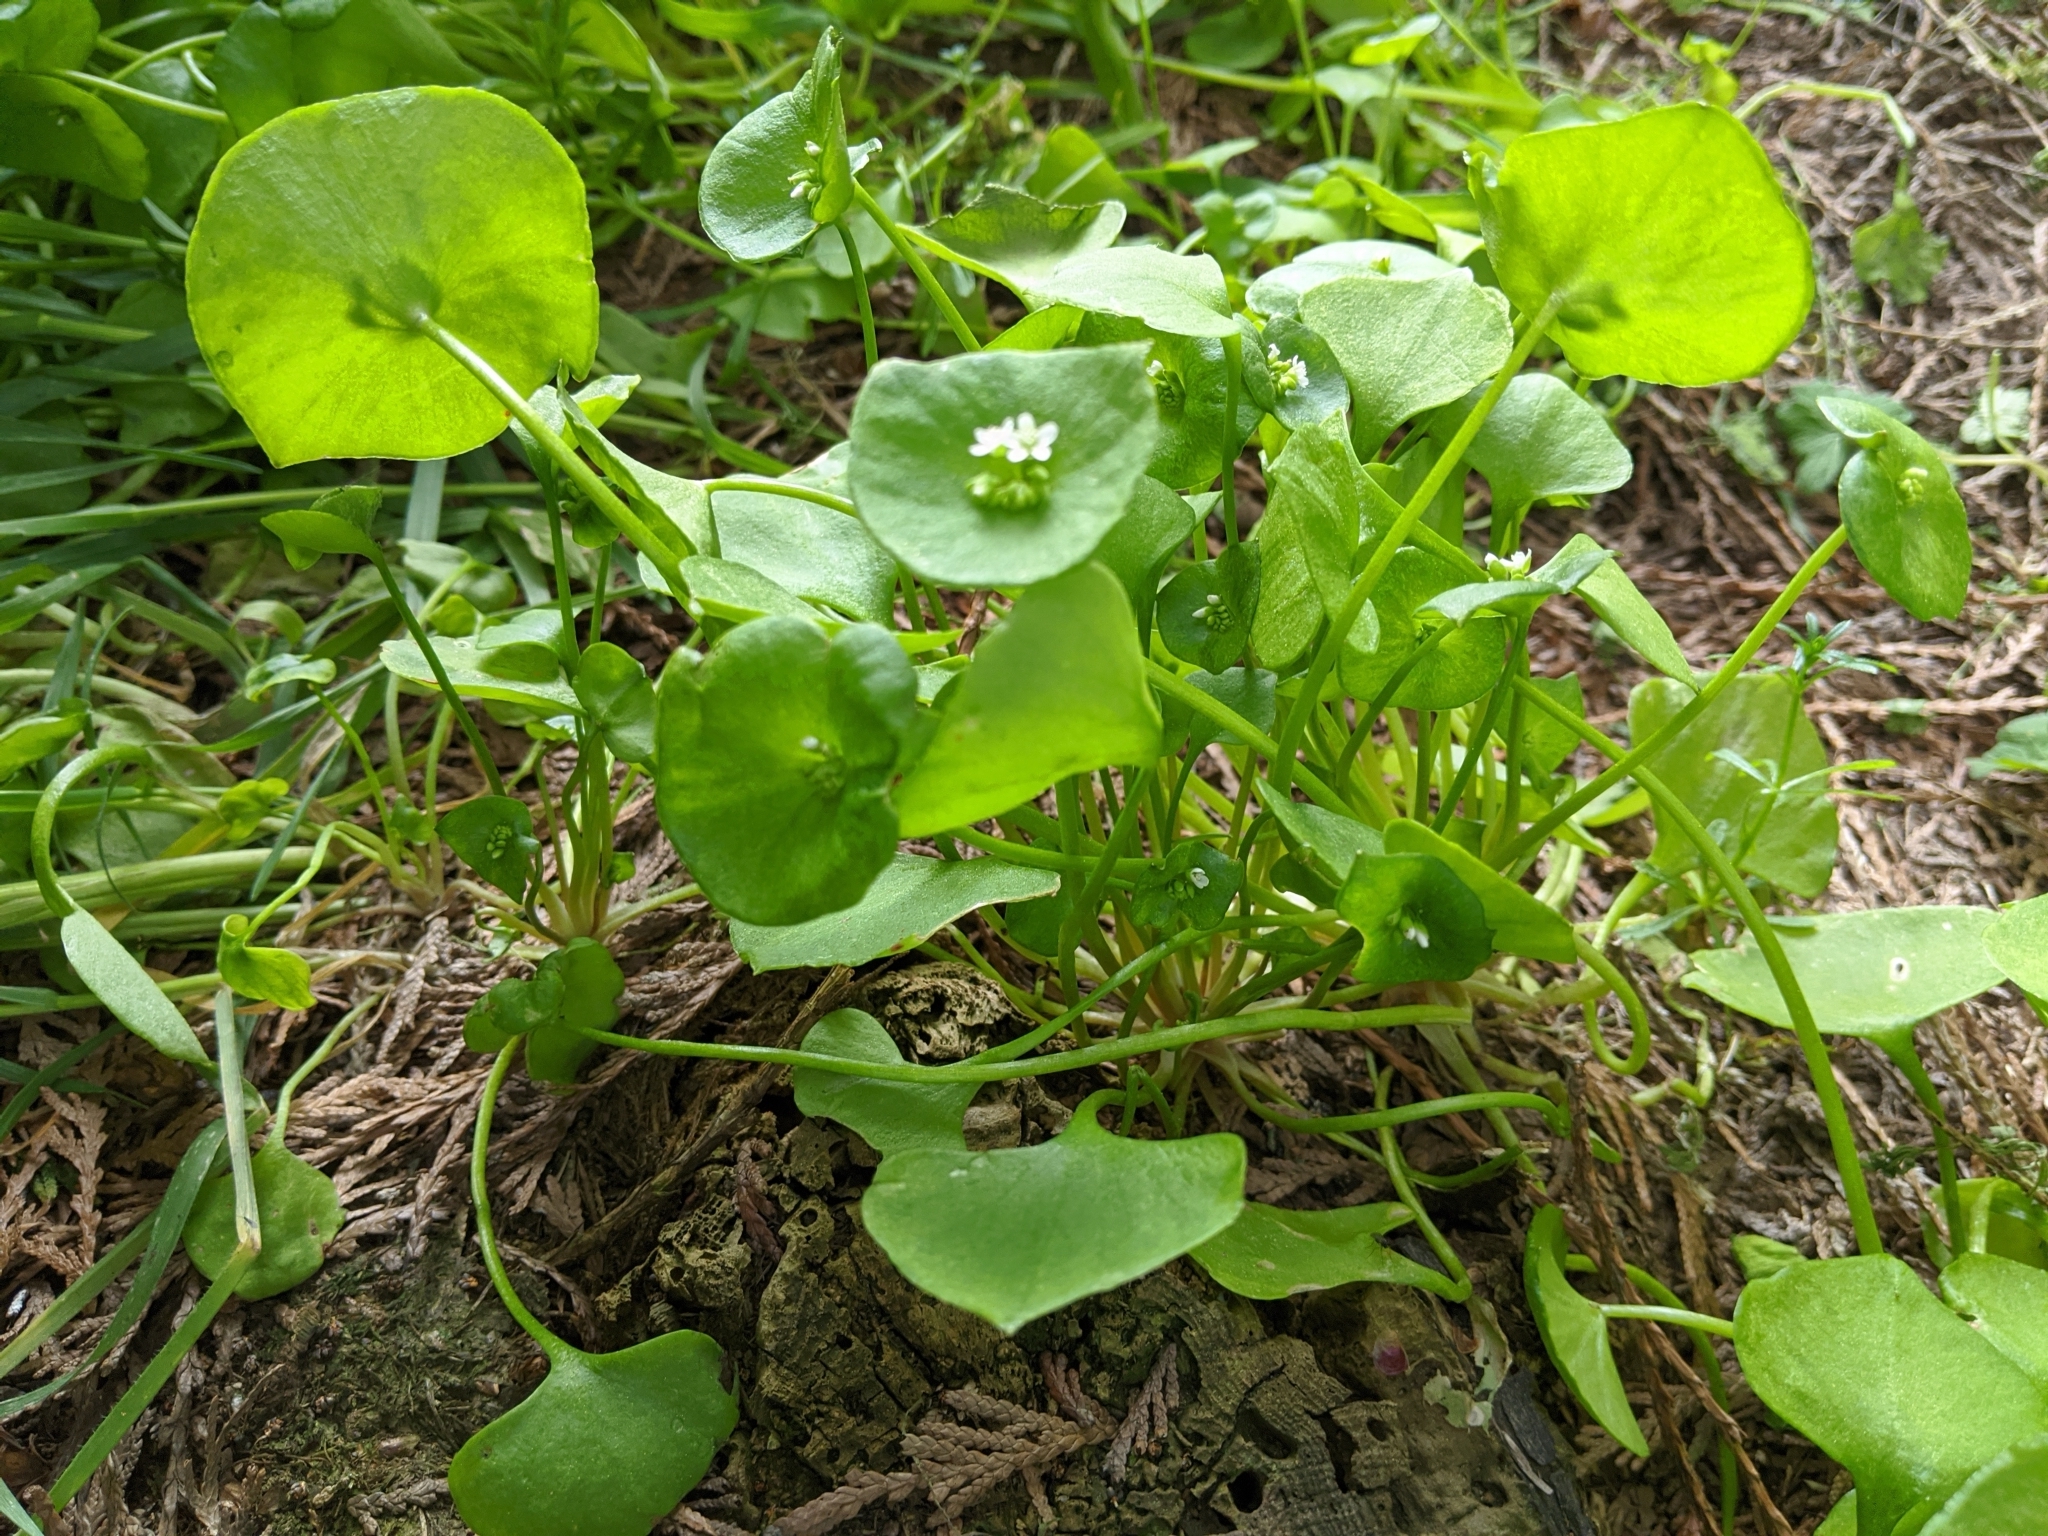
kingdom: Plantae
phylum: Tracheophyta
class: Magnoliopsida
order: Caryophyllales
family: Montiaceae
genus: Claytonia
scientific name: Claytonia perfoliata
